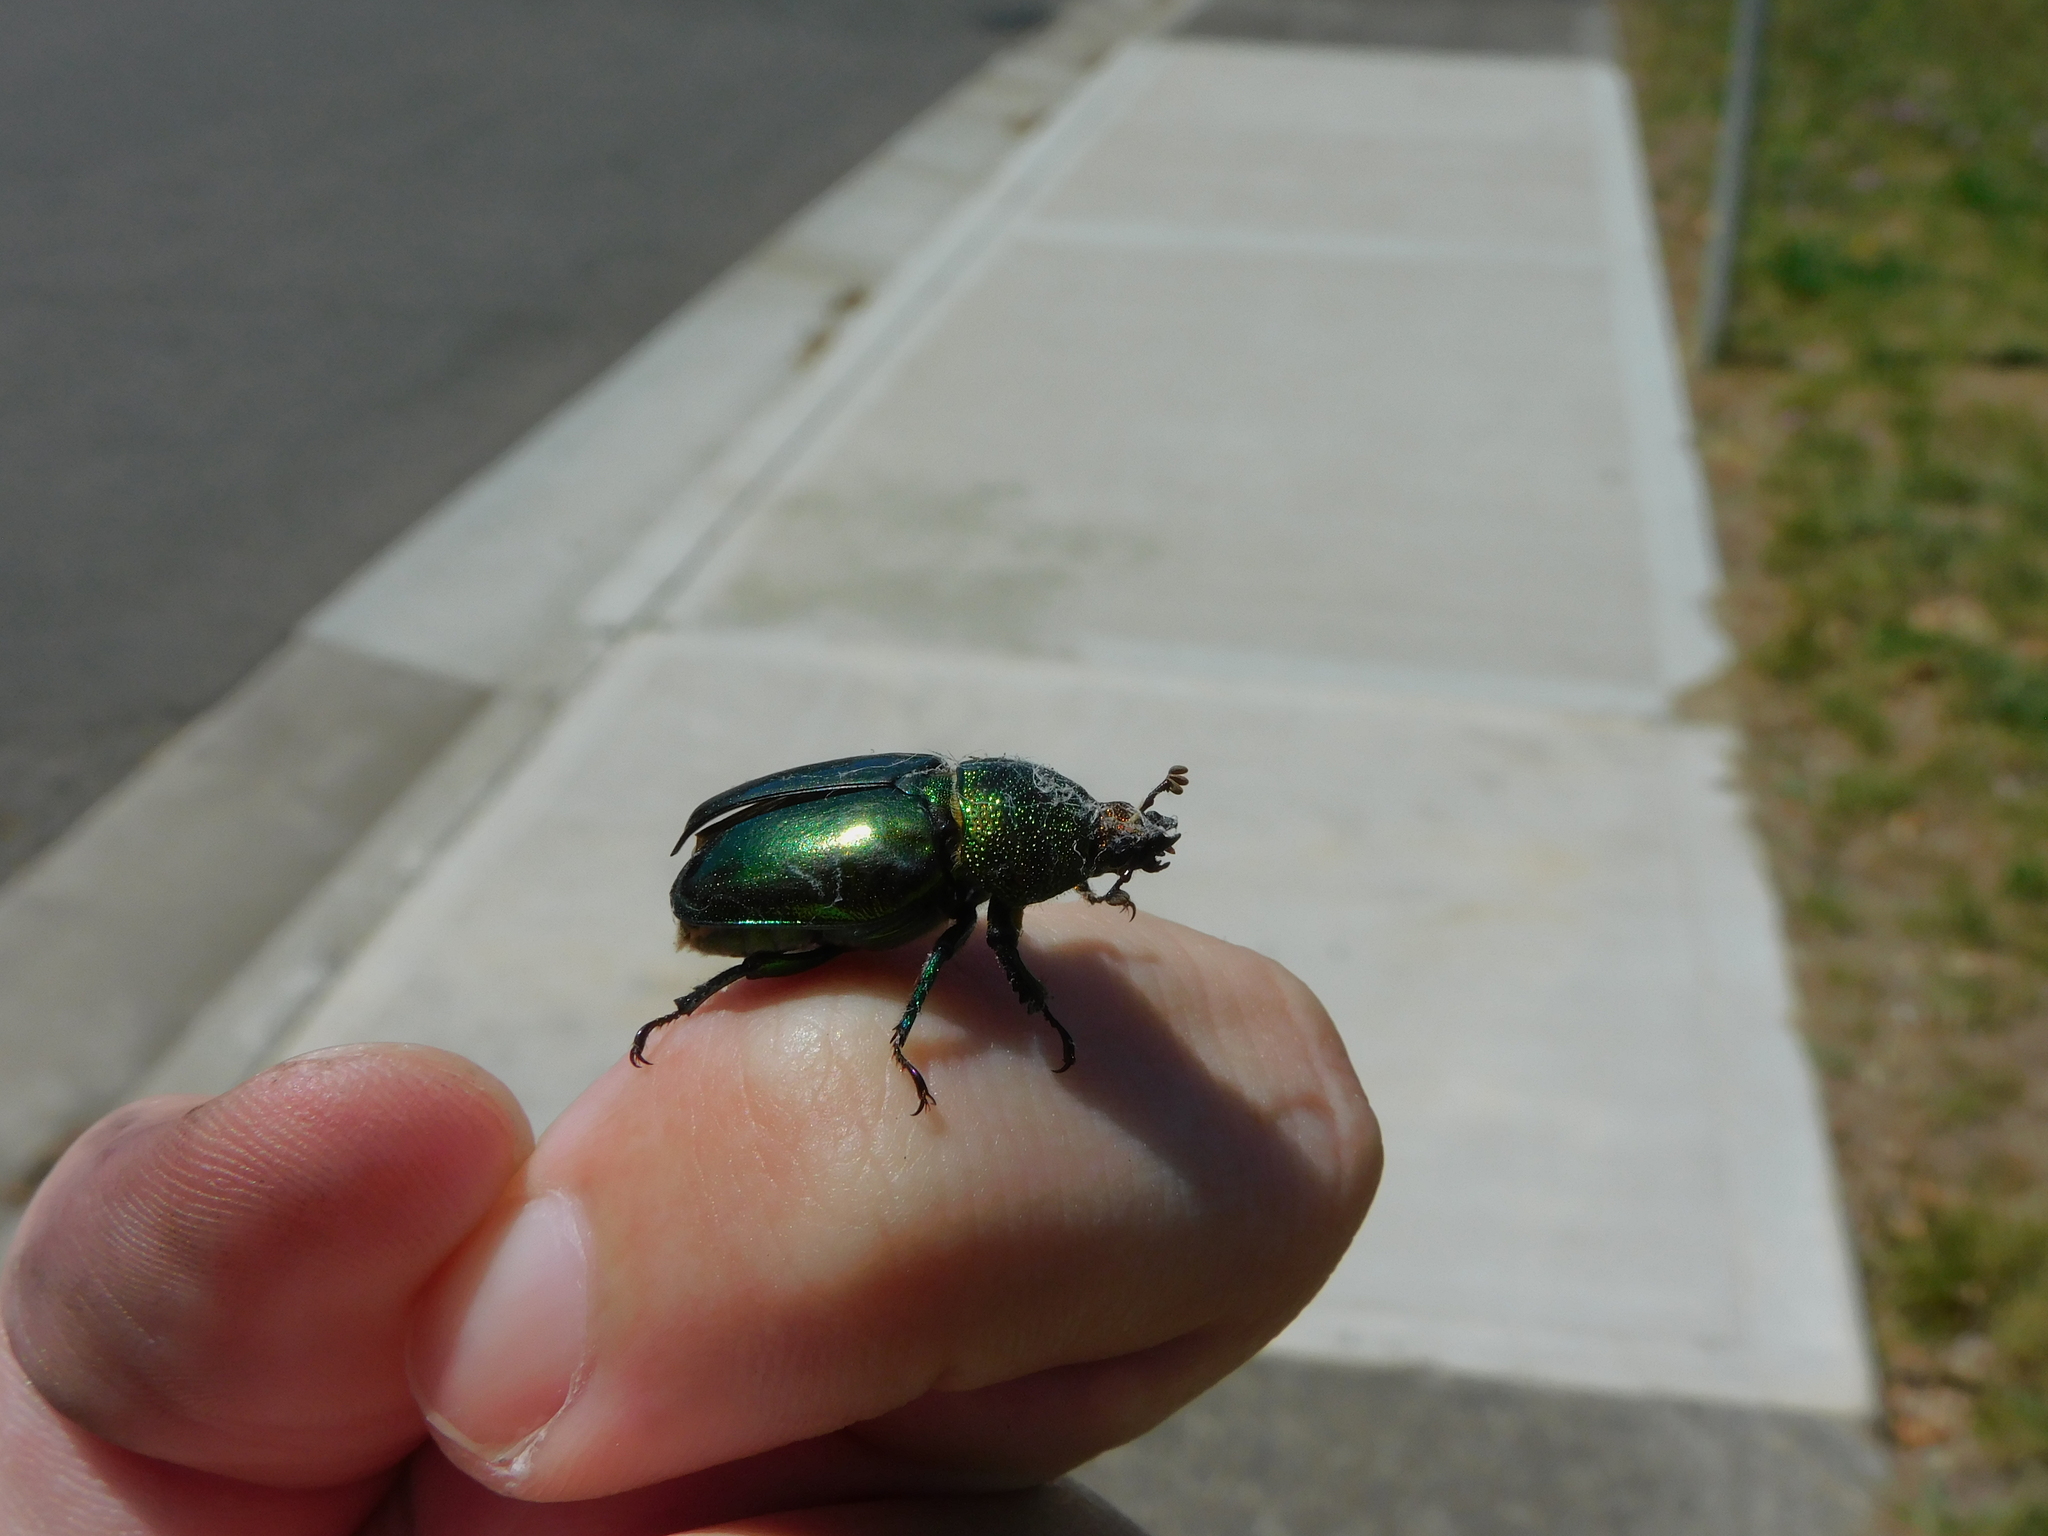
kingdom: Animalia
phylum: Arthropoda
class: Insecta
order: Coleoptera
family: Lucanidae
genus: Lamprima
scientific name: Lamprima aurata
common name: Golden stag beetle
